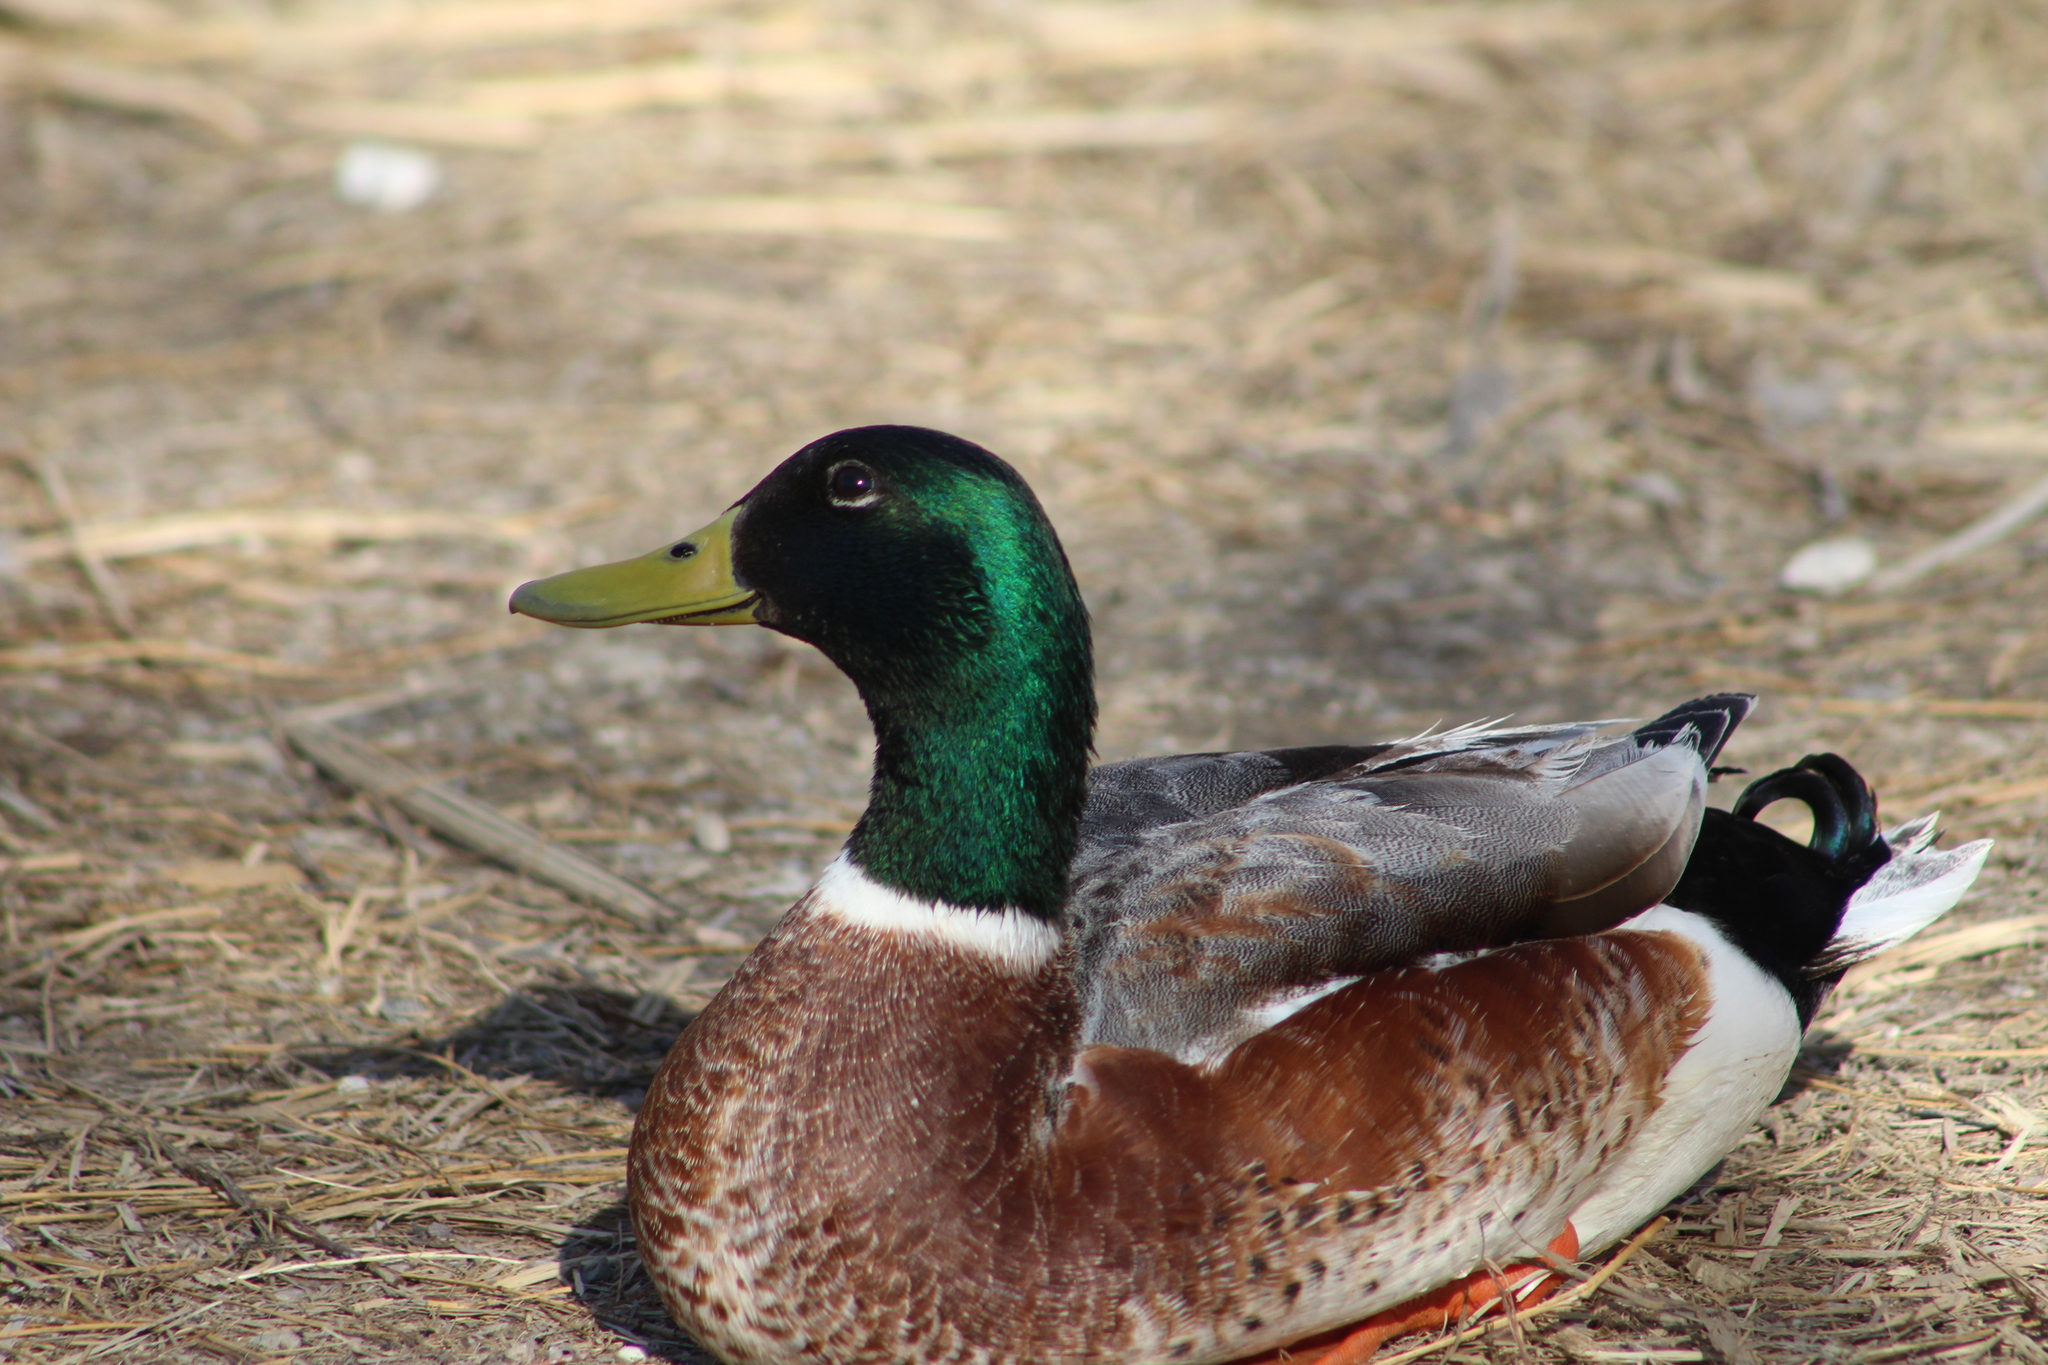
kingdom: Animalia
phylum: Chordata
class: Aves
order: Anseriformes
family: Anatidae
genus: Anas
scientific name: Anas platyrhynchos
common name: Mallard
